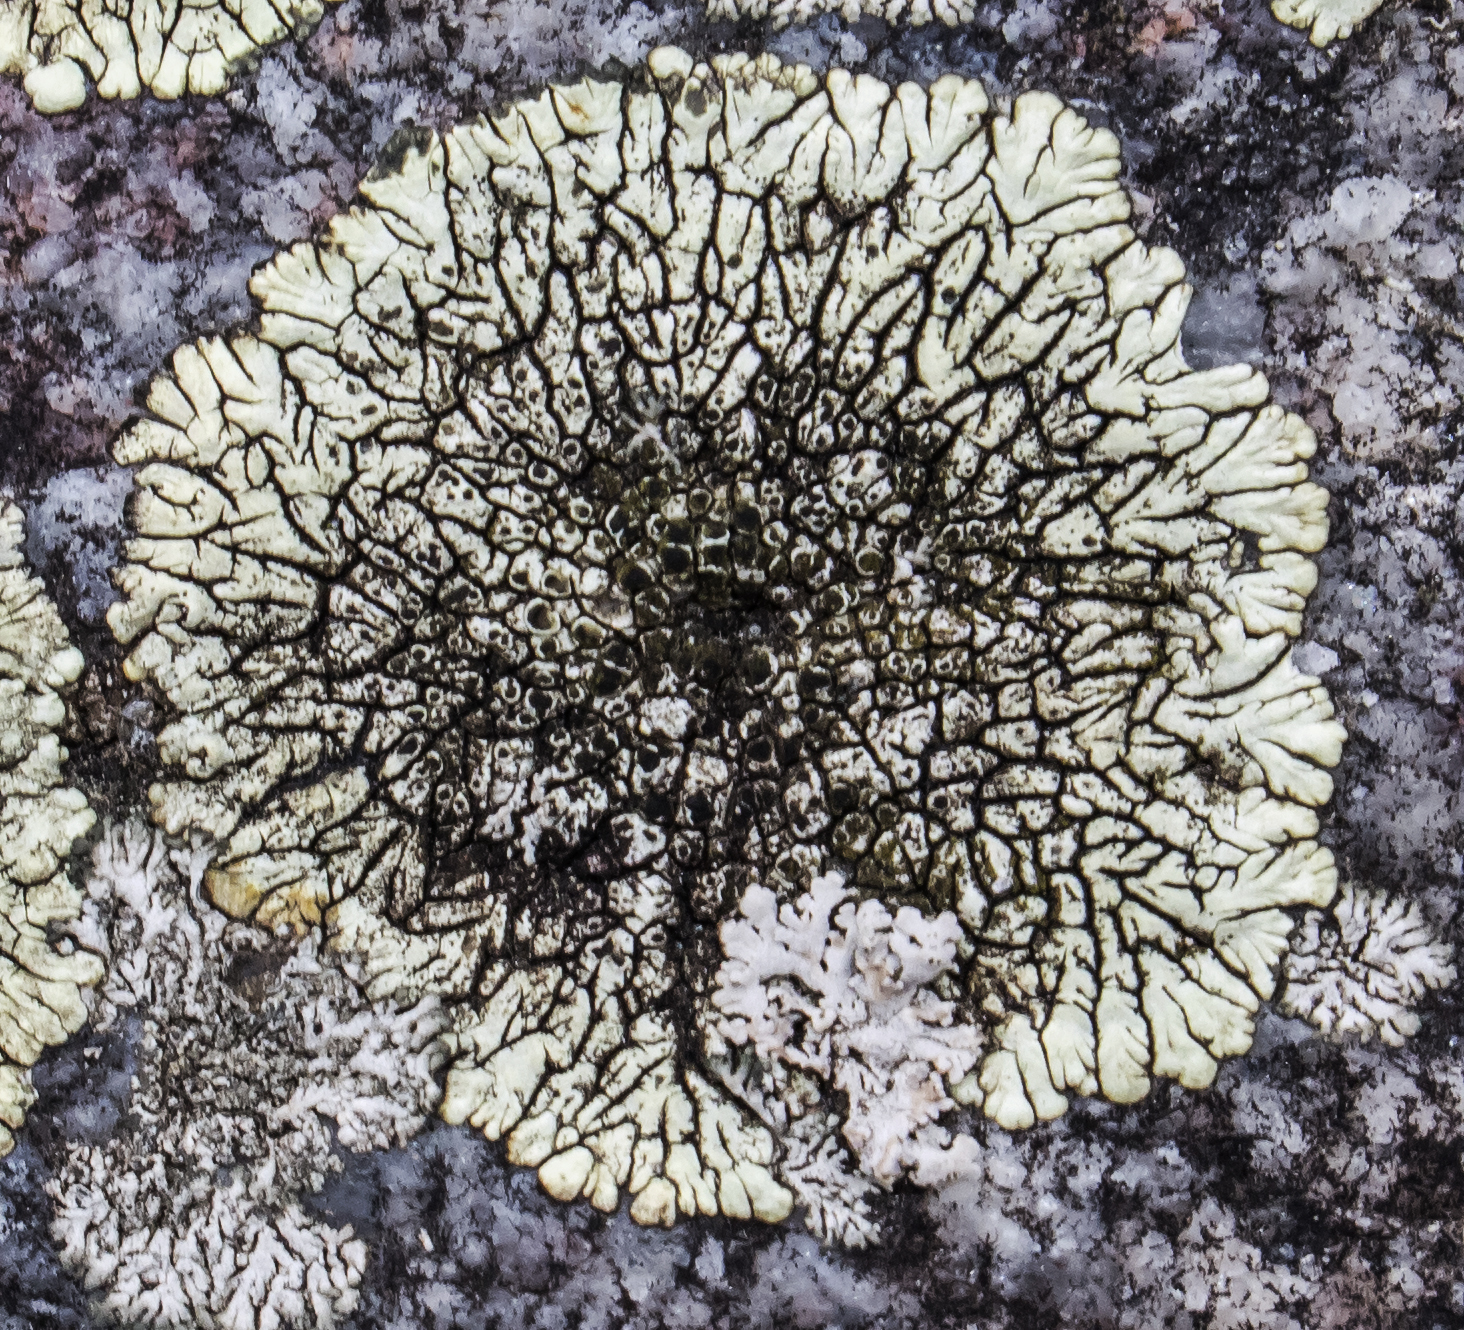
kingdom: Fungi
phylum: Ascomycota
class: Lecanoromycetes
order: Caliciales
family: Caliciaceae
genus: Dimelaena
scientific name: Dimelaena oreina
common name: Golden moonglow lichen
